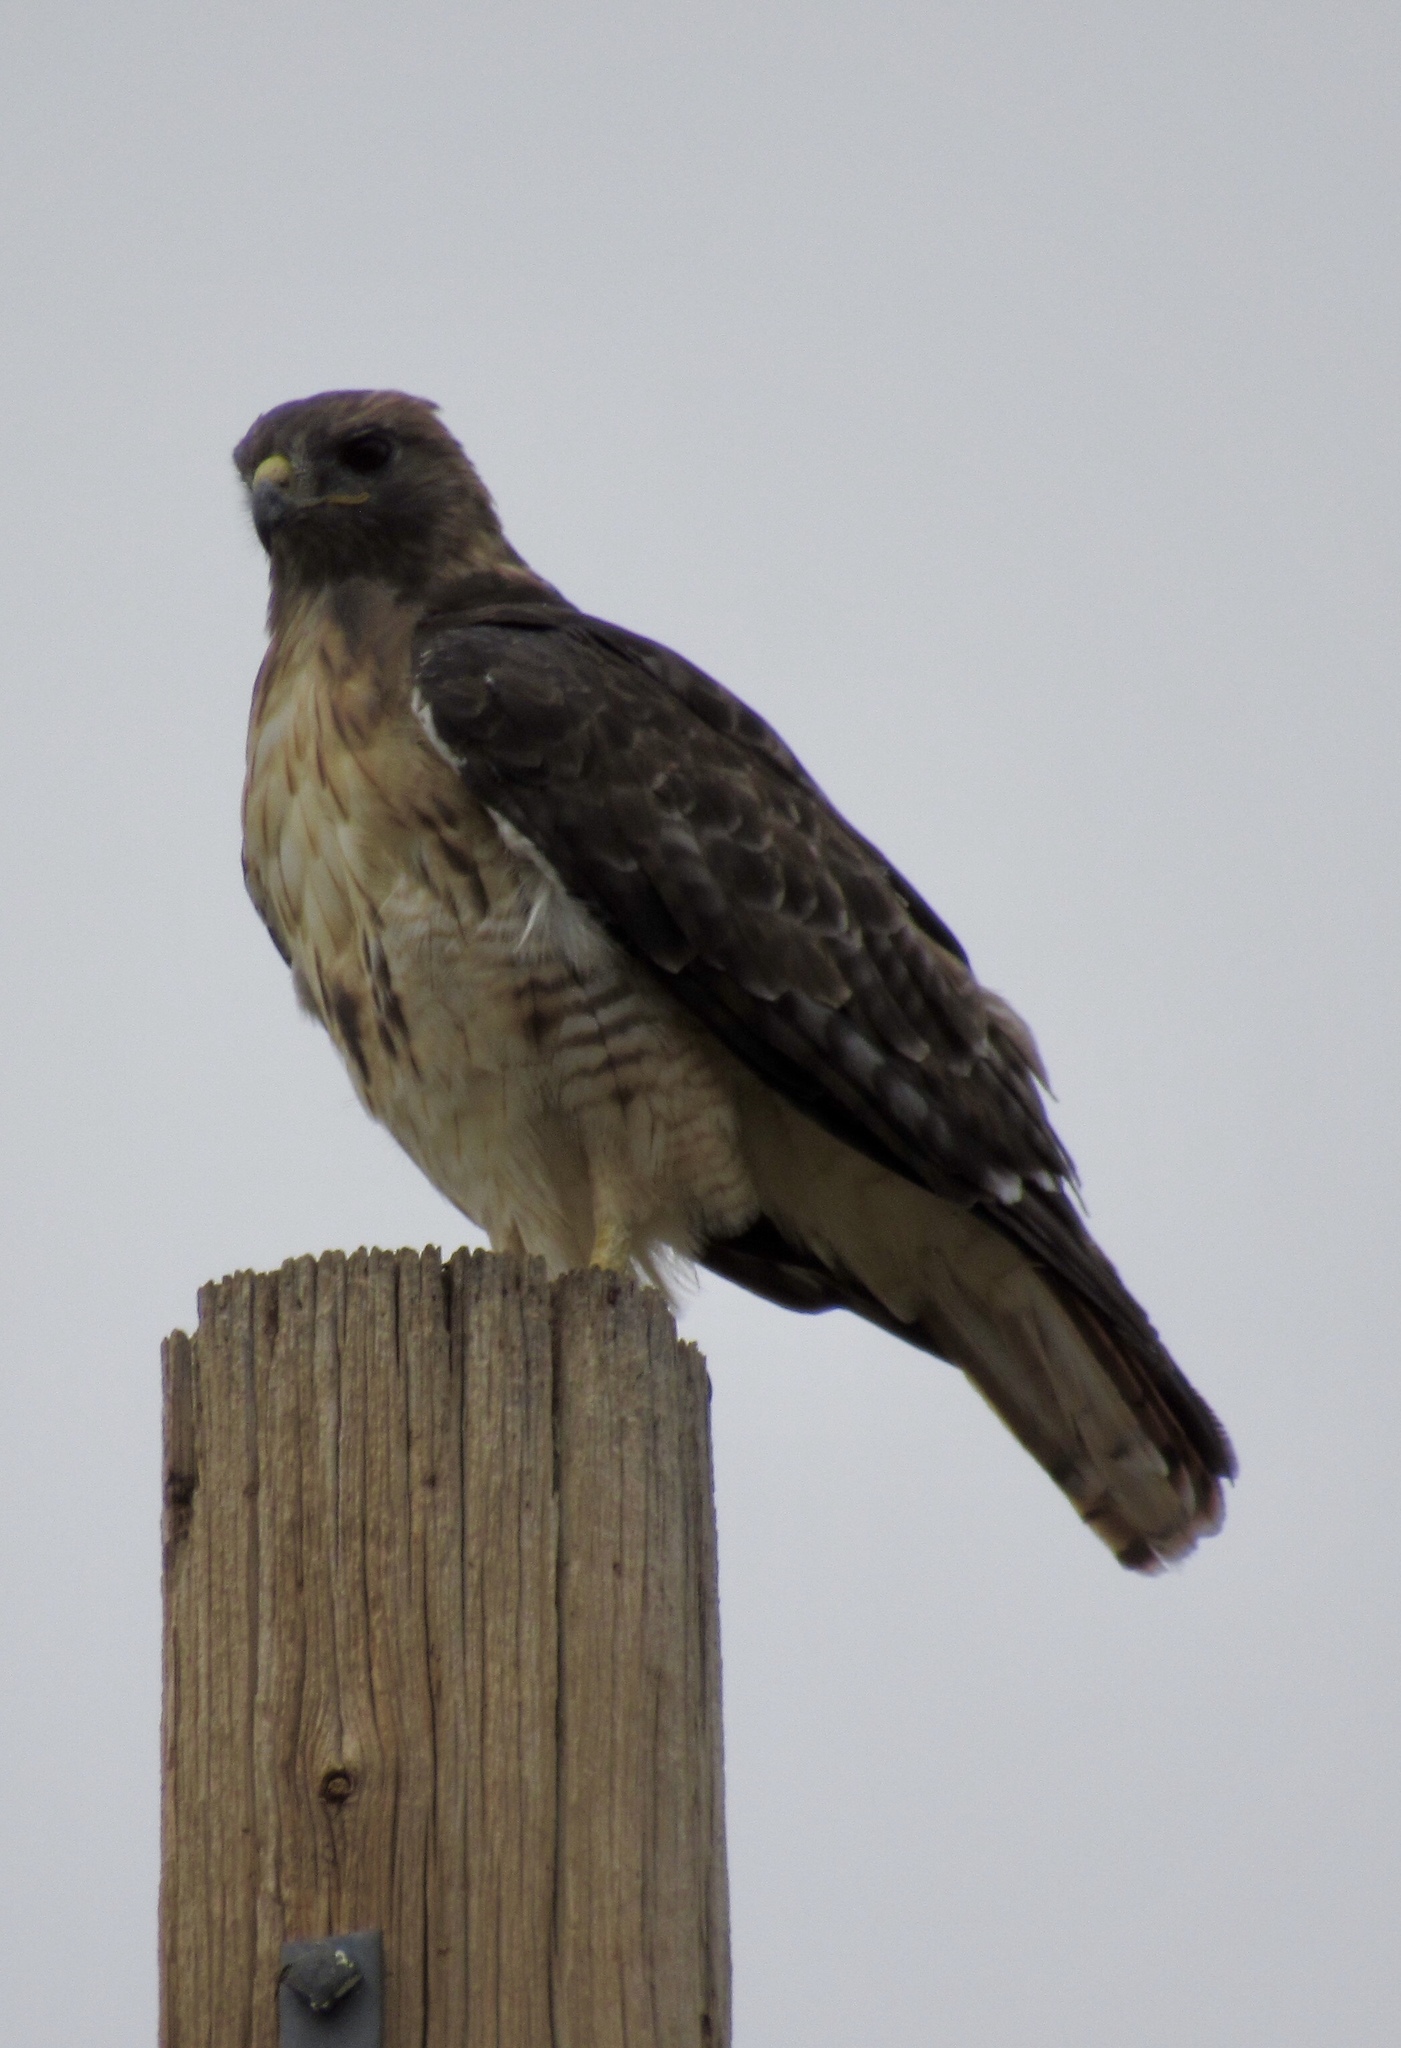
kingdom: Animalia
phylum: Chordata
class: Aves
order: Accipitriformes
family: Accipitridae
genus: Buteo
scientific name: Buteo jamaicensis
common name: Red-tailed hawk
